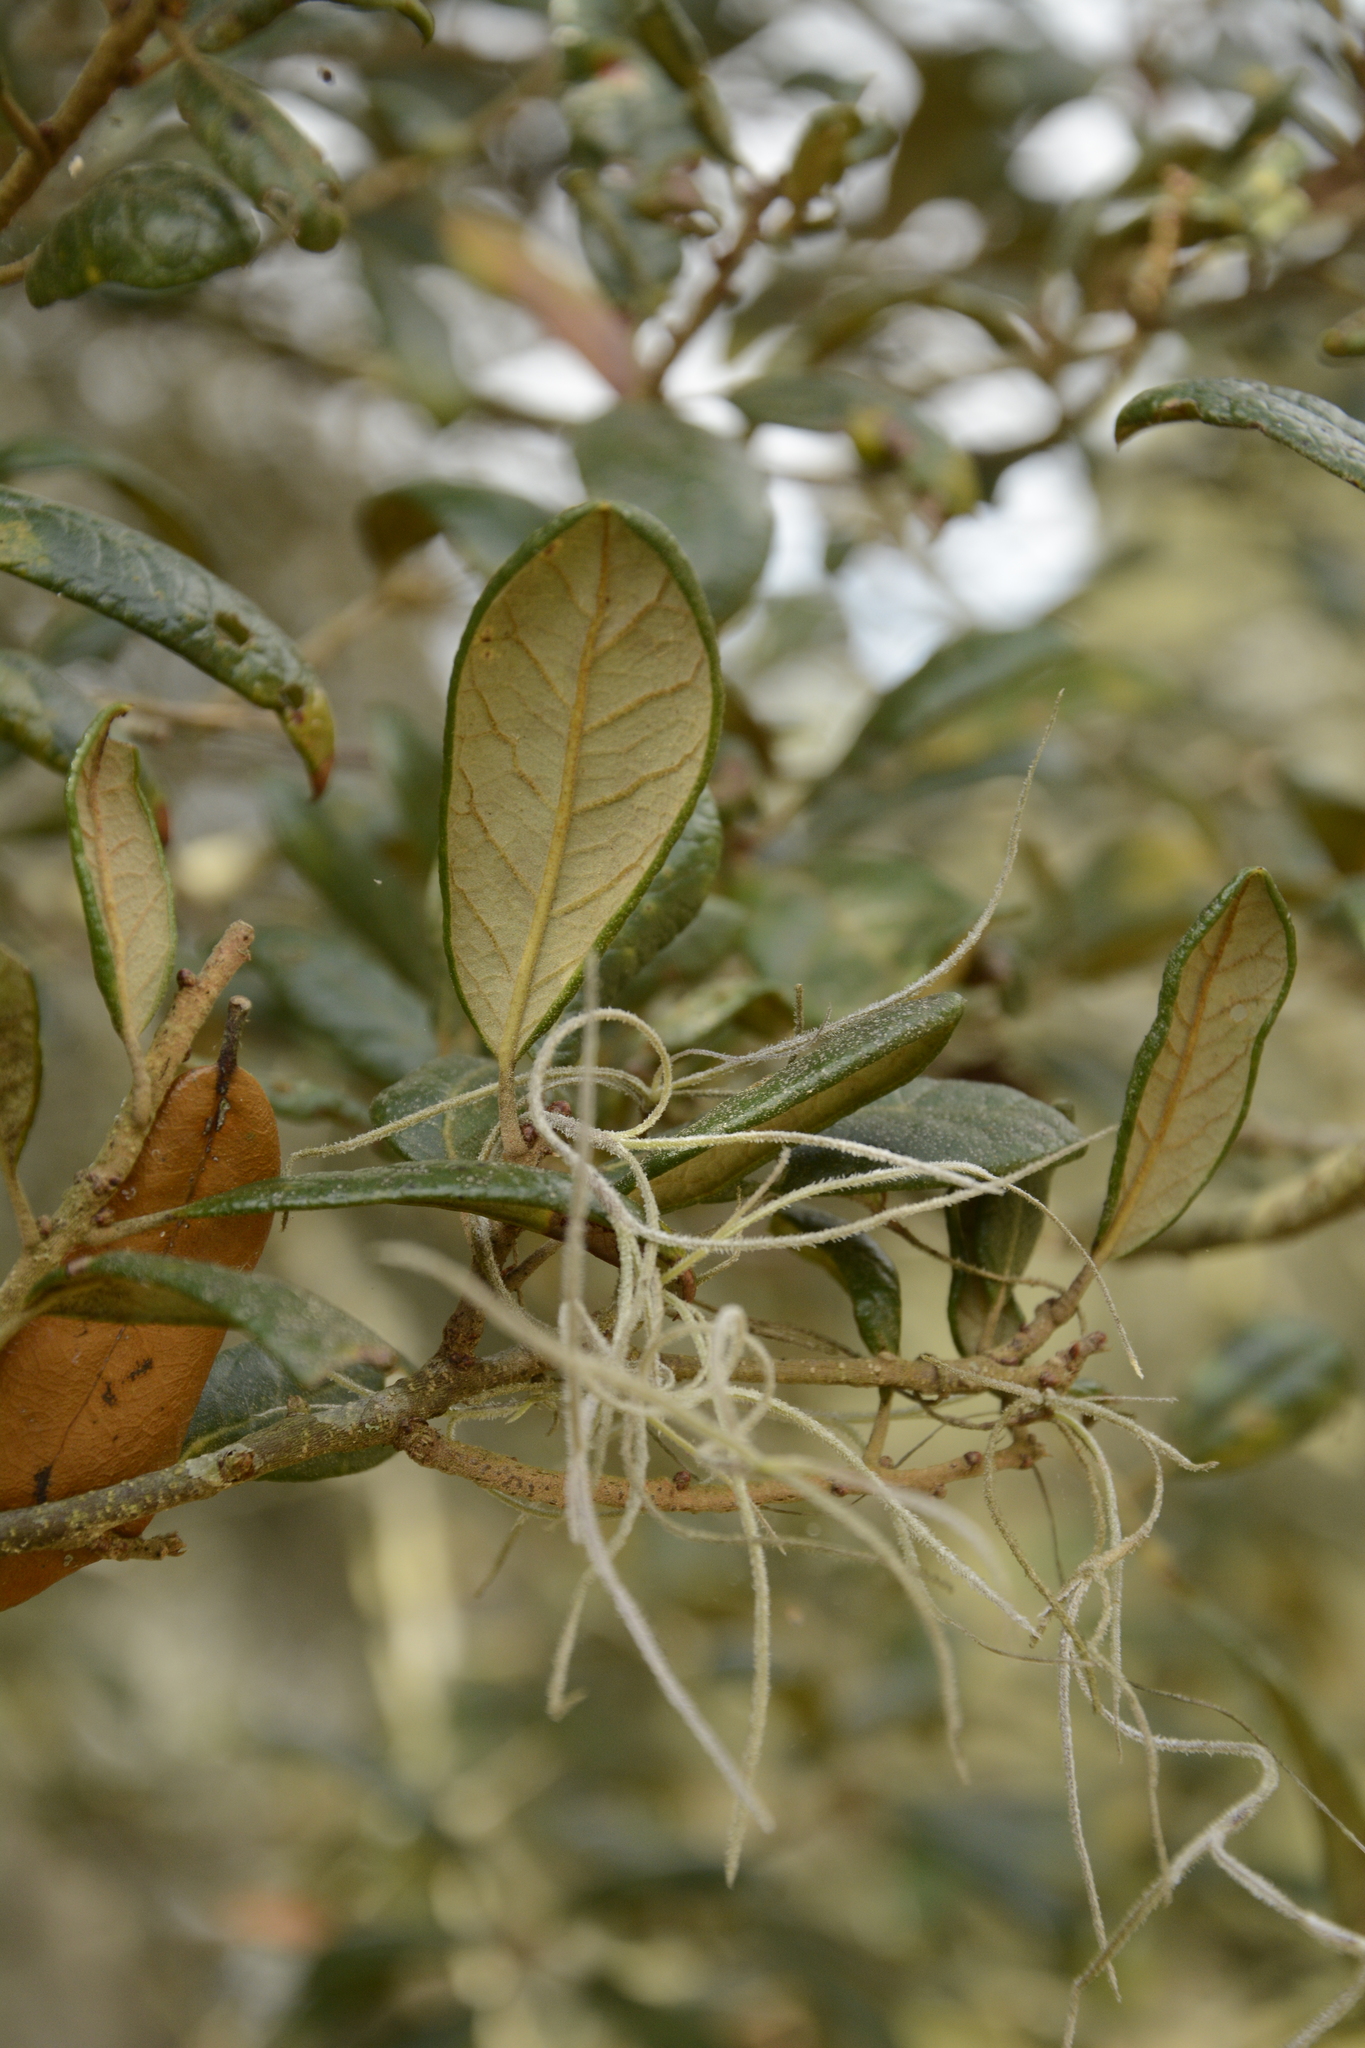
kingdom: Plantae
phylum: Tracheophyta
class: Magnoliopsida
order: Fagales
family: Fagaceae
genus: Quercus
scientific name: Quercus geminata
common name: Sand live oak
